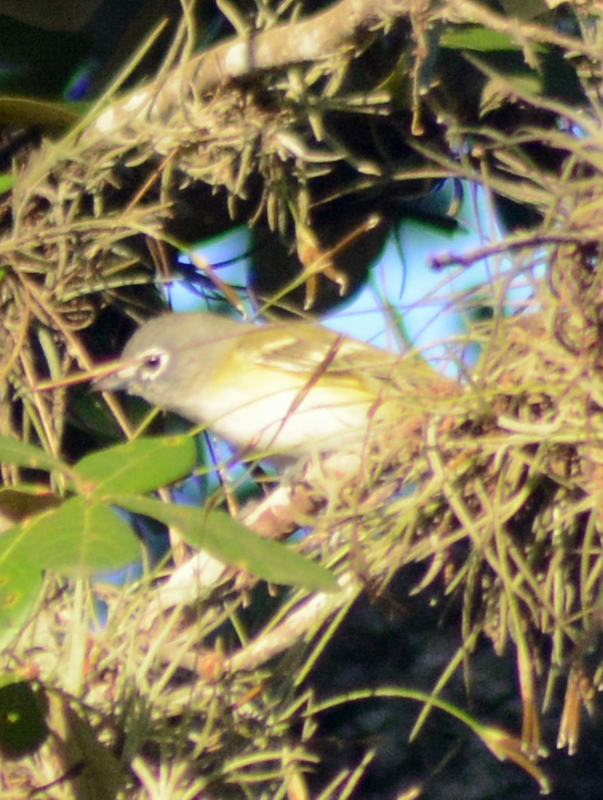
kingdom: Animalia
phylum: Chordata
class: Aves
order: Passeriformes
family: Vireonidae
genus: Vireo
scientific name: Vireo solitarius
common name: Blue-headed vireo
